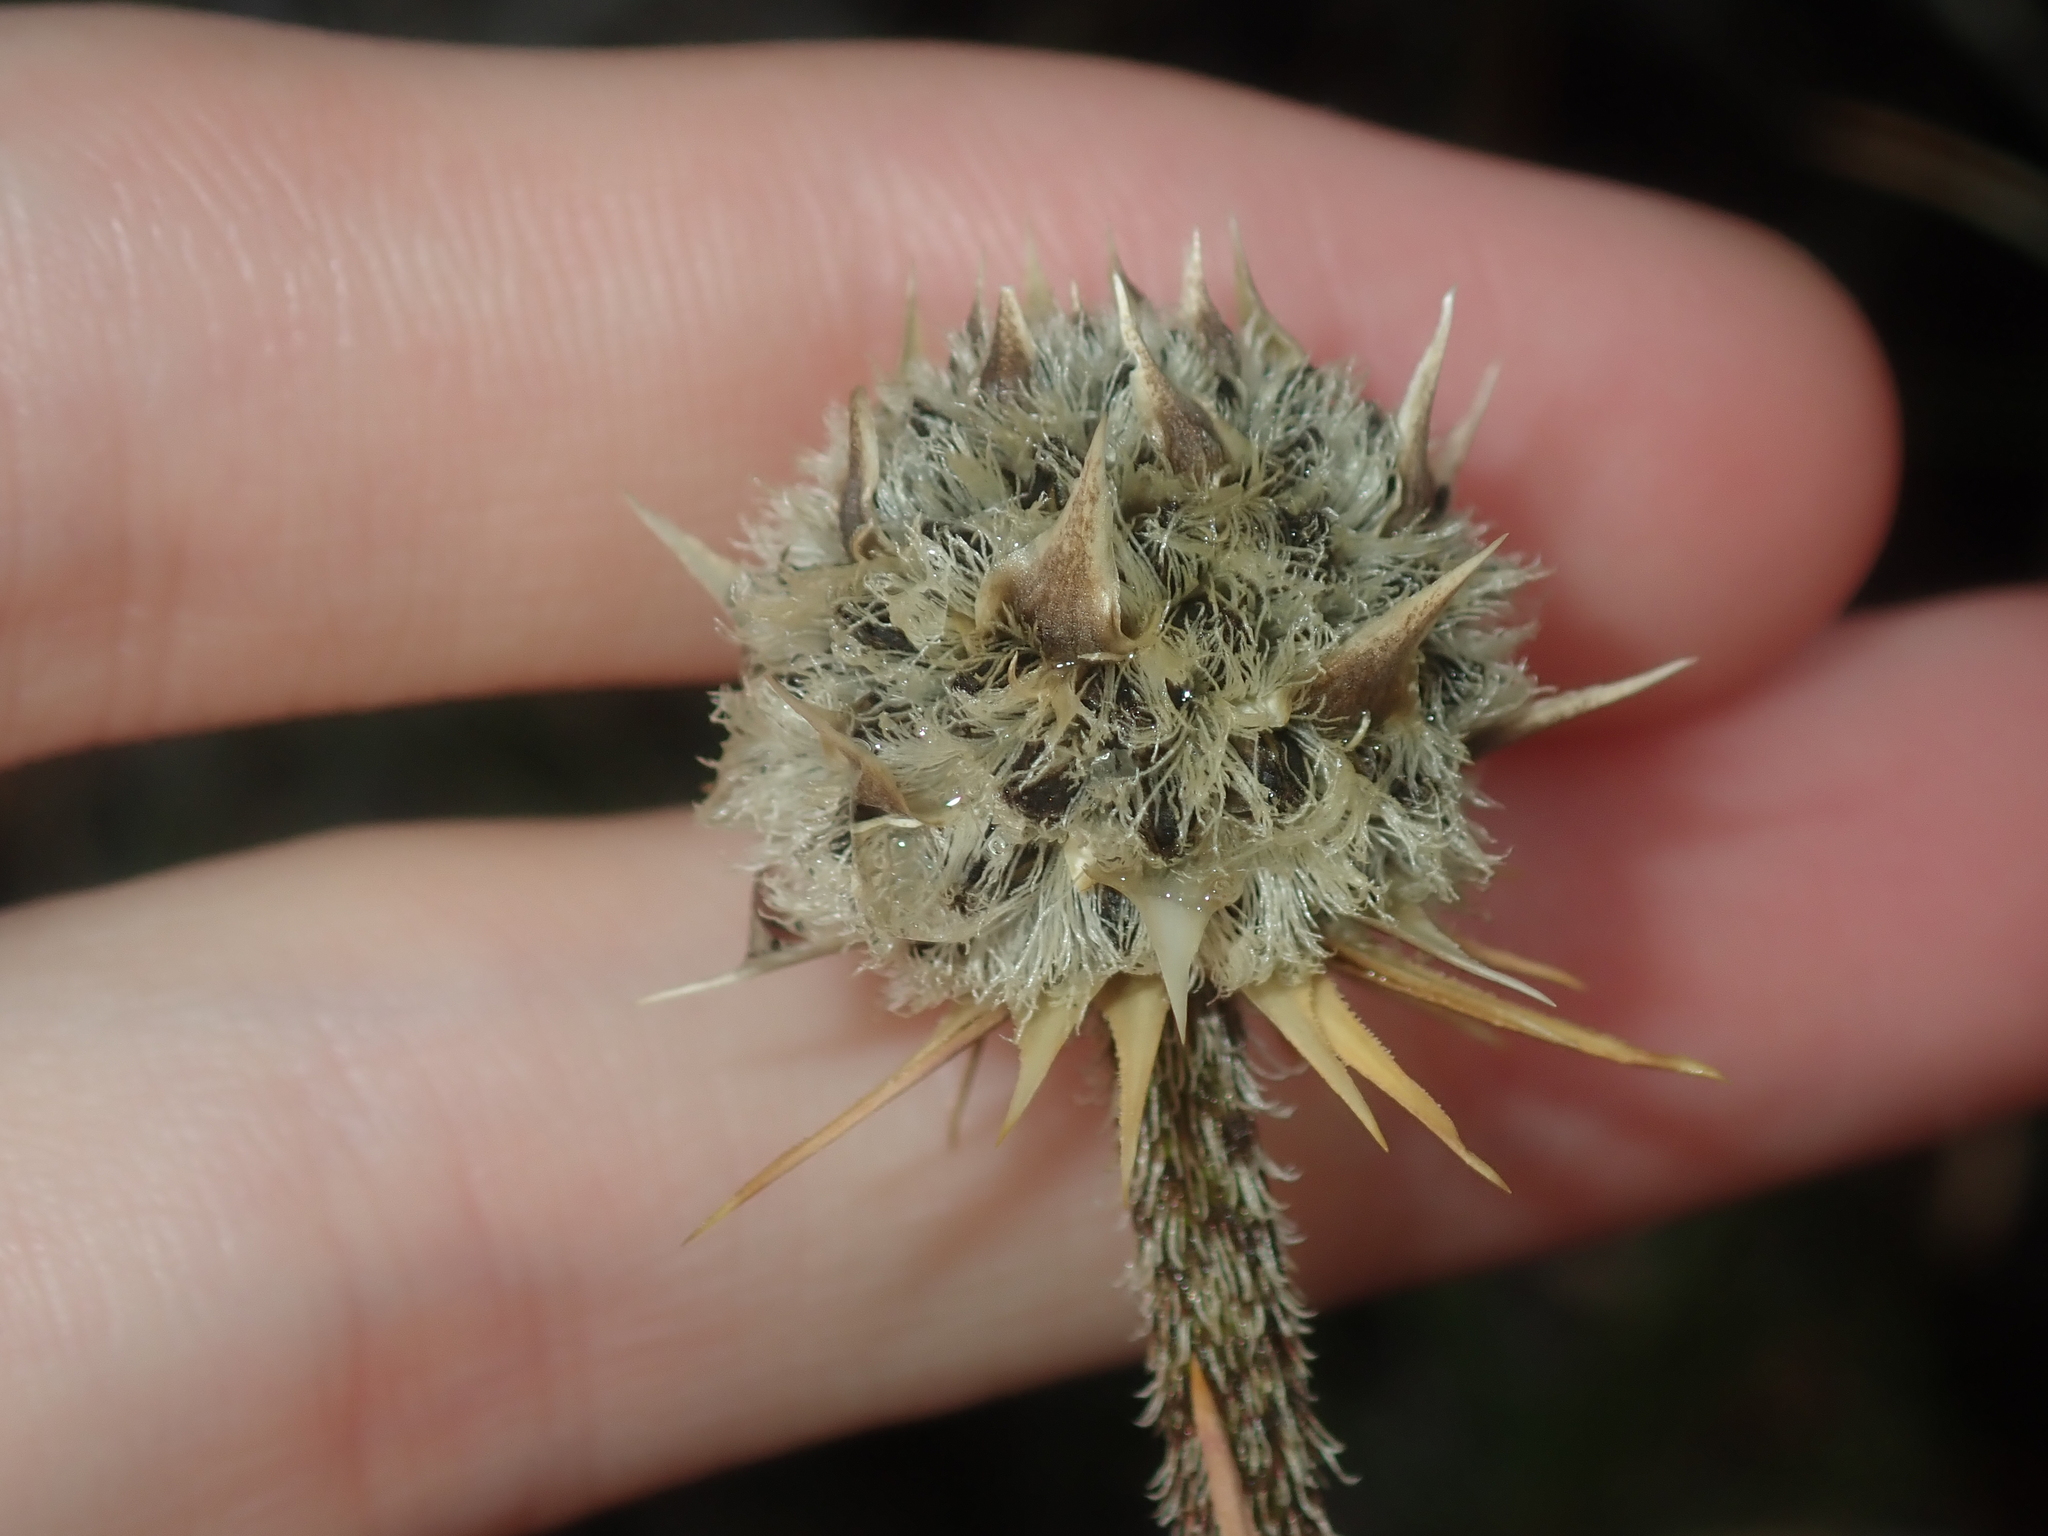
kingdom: Plantae
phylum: Tracheophyta
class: Liliopsida
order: Arecales
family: Dasypogonaceae
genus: Dasypogon
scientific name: Dasypogon obliquifolius
